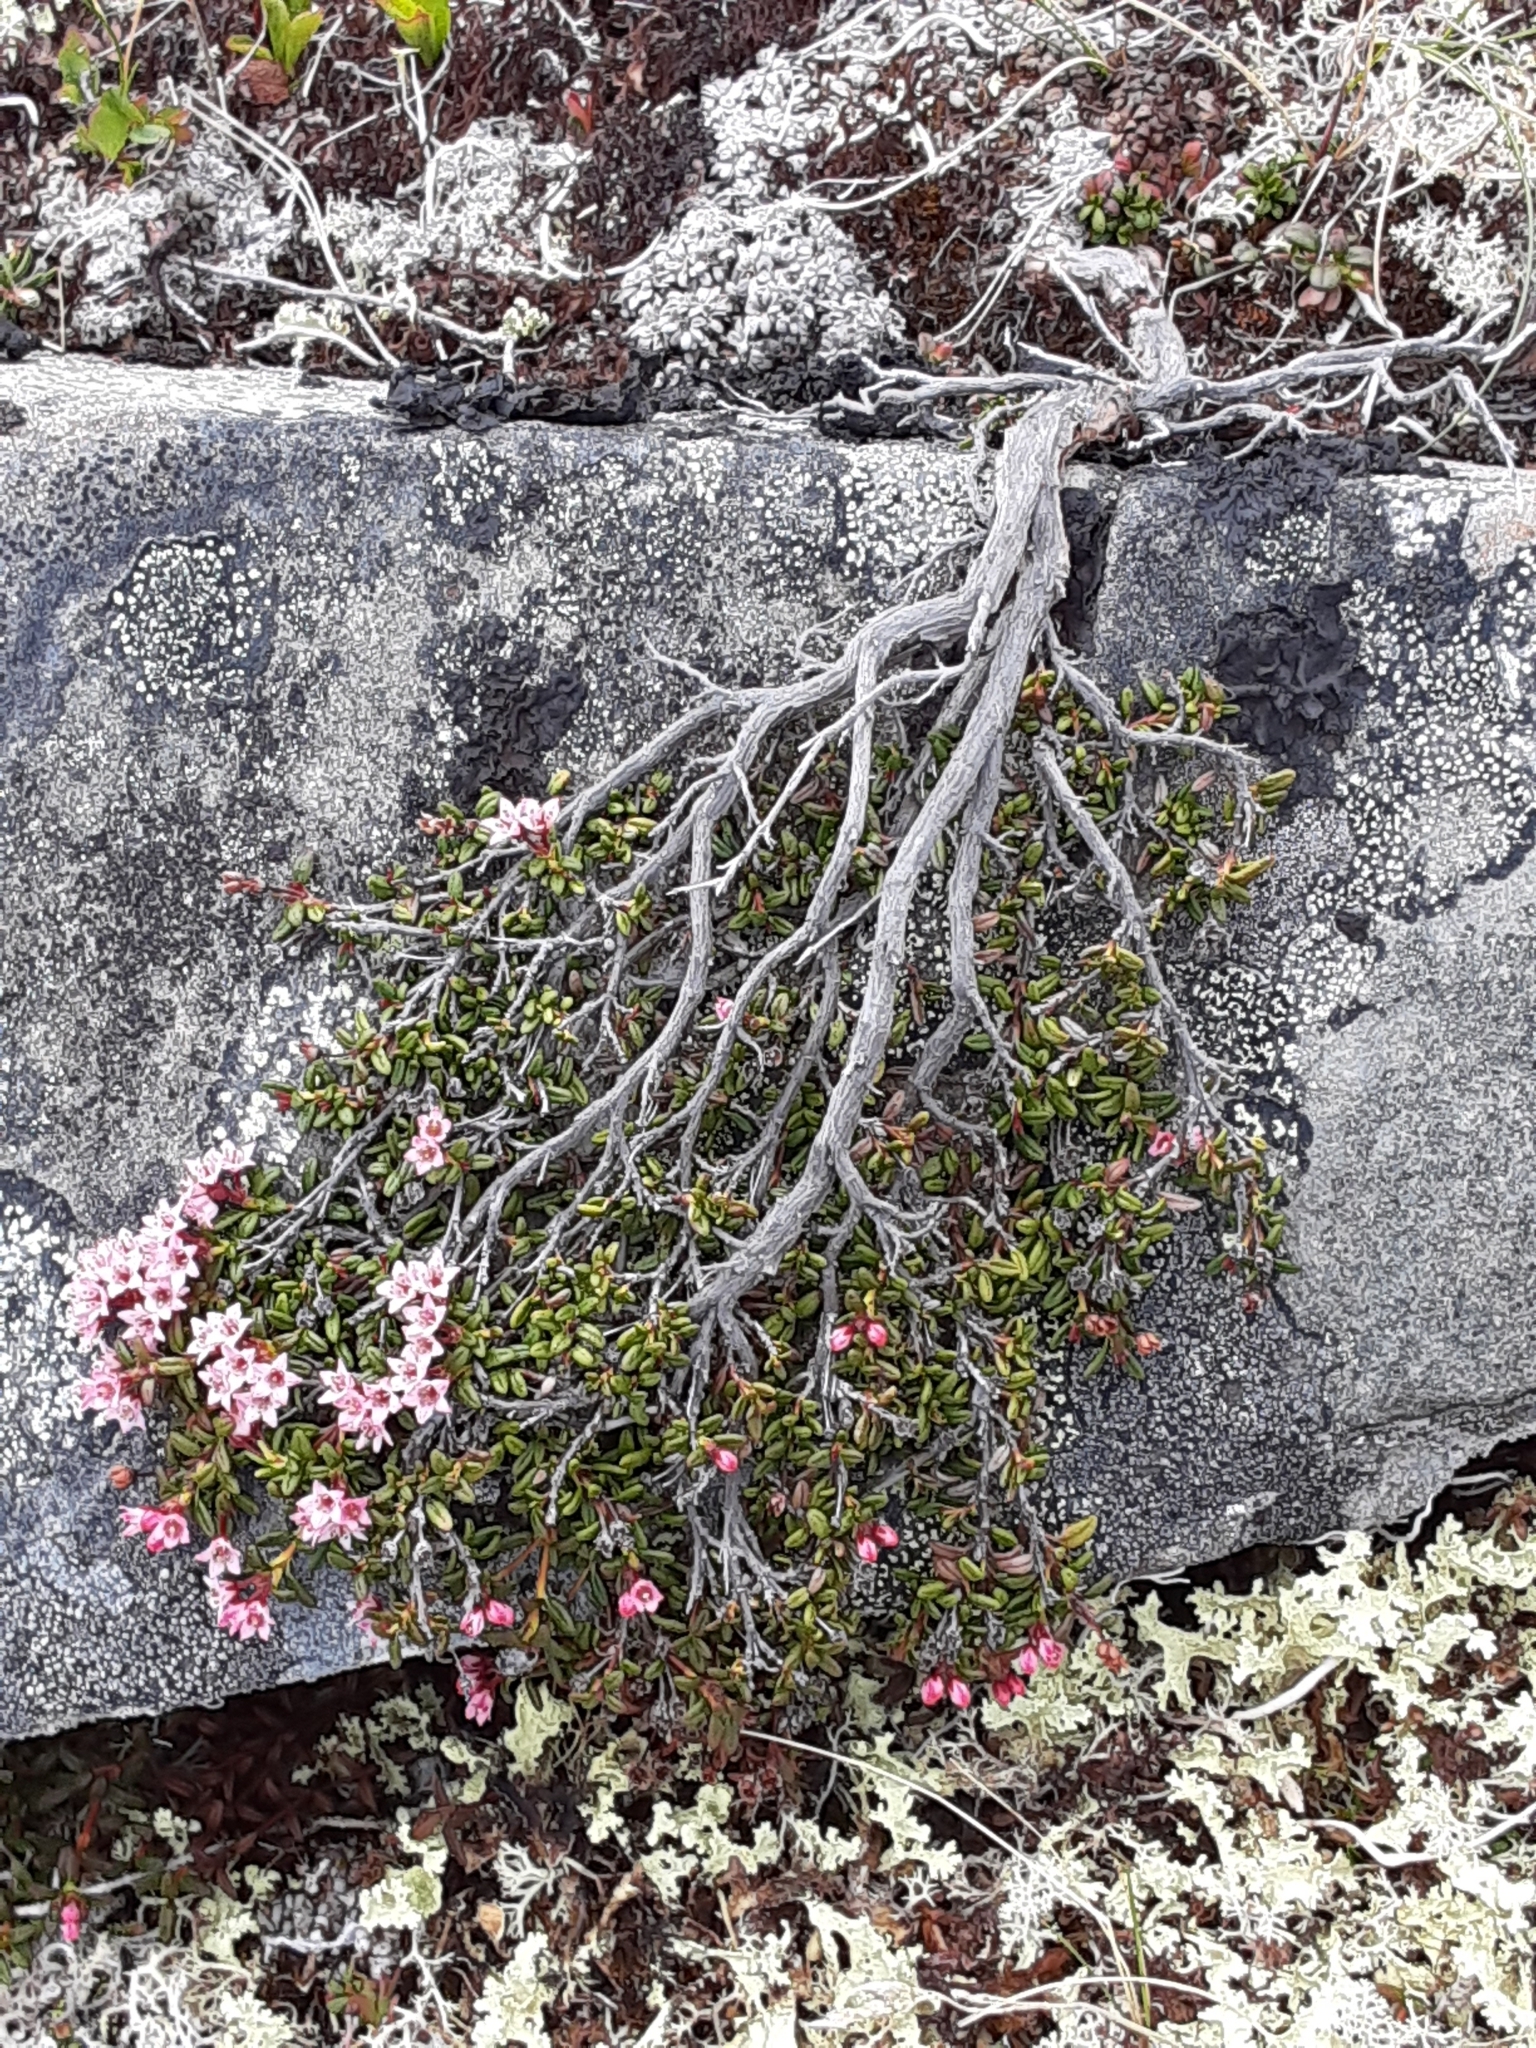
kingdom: Plantae
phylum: Tracheophyta
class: Magnoliopsida
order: Ericales
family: Ericaceae
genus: Kalmia
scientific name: Kalmia procumbens
